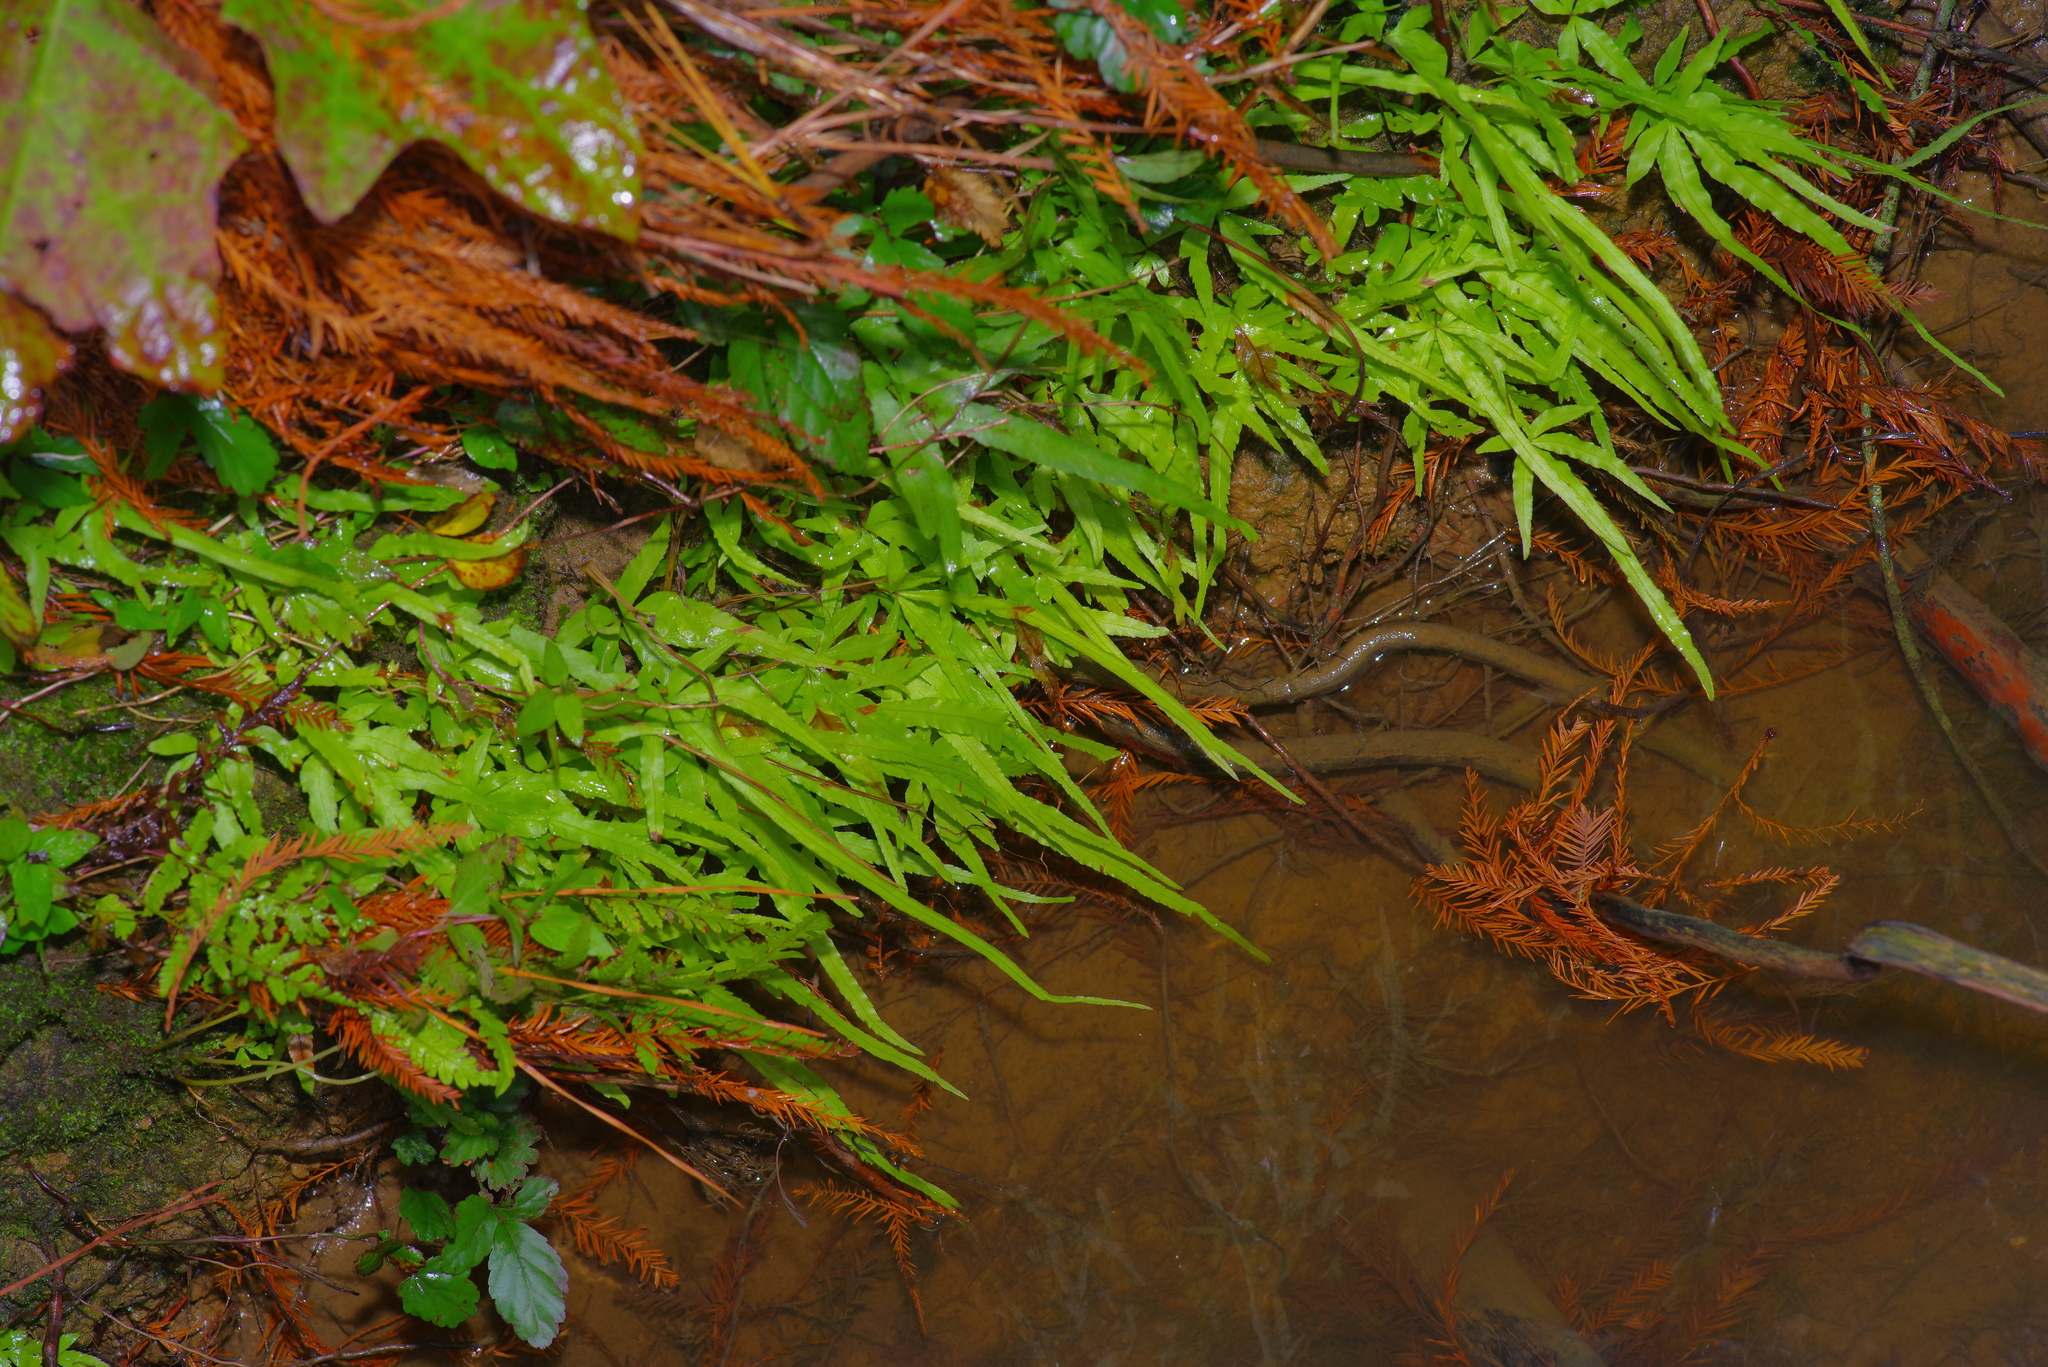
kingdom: Plantae
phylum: Tracheophyta
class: Polypodiopsida
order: Polypodiales
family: Pteridaceae
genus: Pteris
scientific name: Pteris multifida
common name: Spider brake
